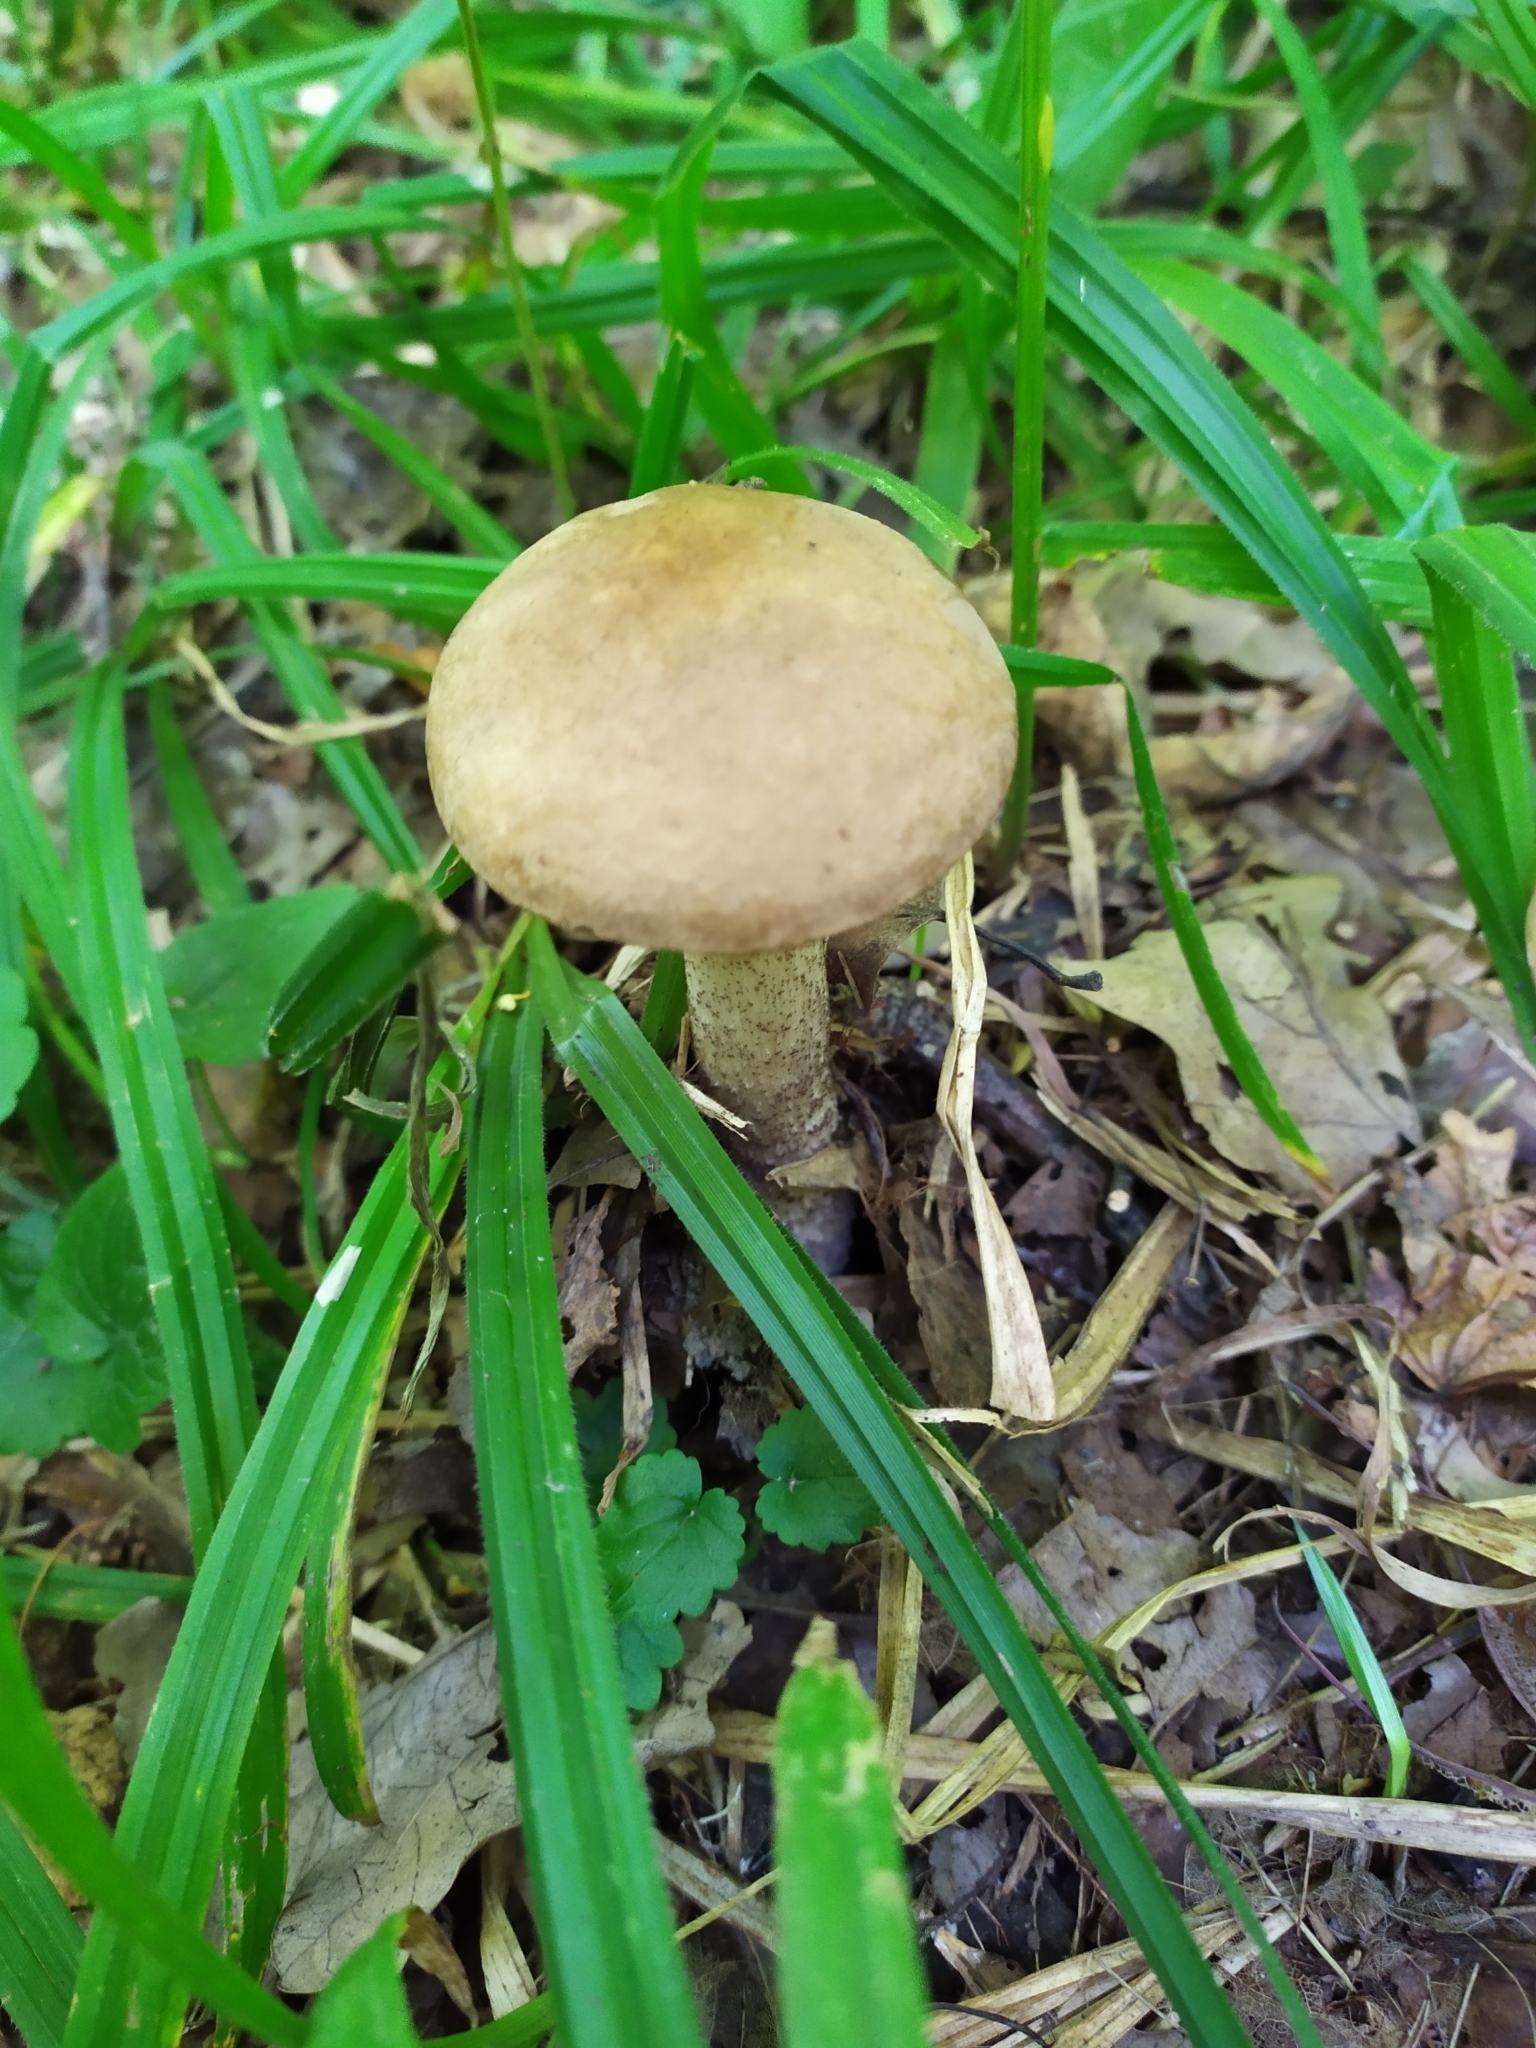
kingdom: Fungi
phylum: Basidiomycota
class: Agaricomycetes
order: Boletales
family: Boletaceae
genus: Leccinum
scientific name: Leccinum scabrum
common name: Blushing bolete
